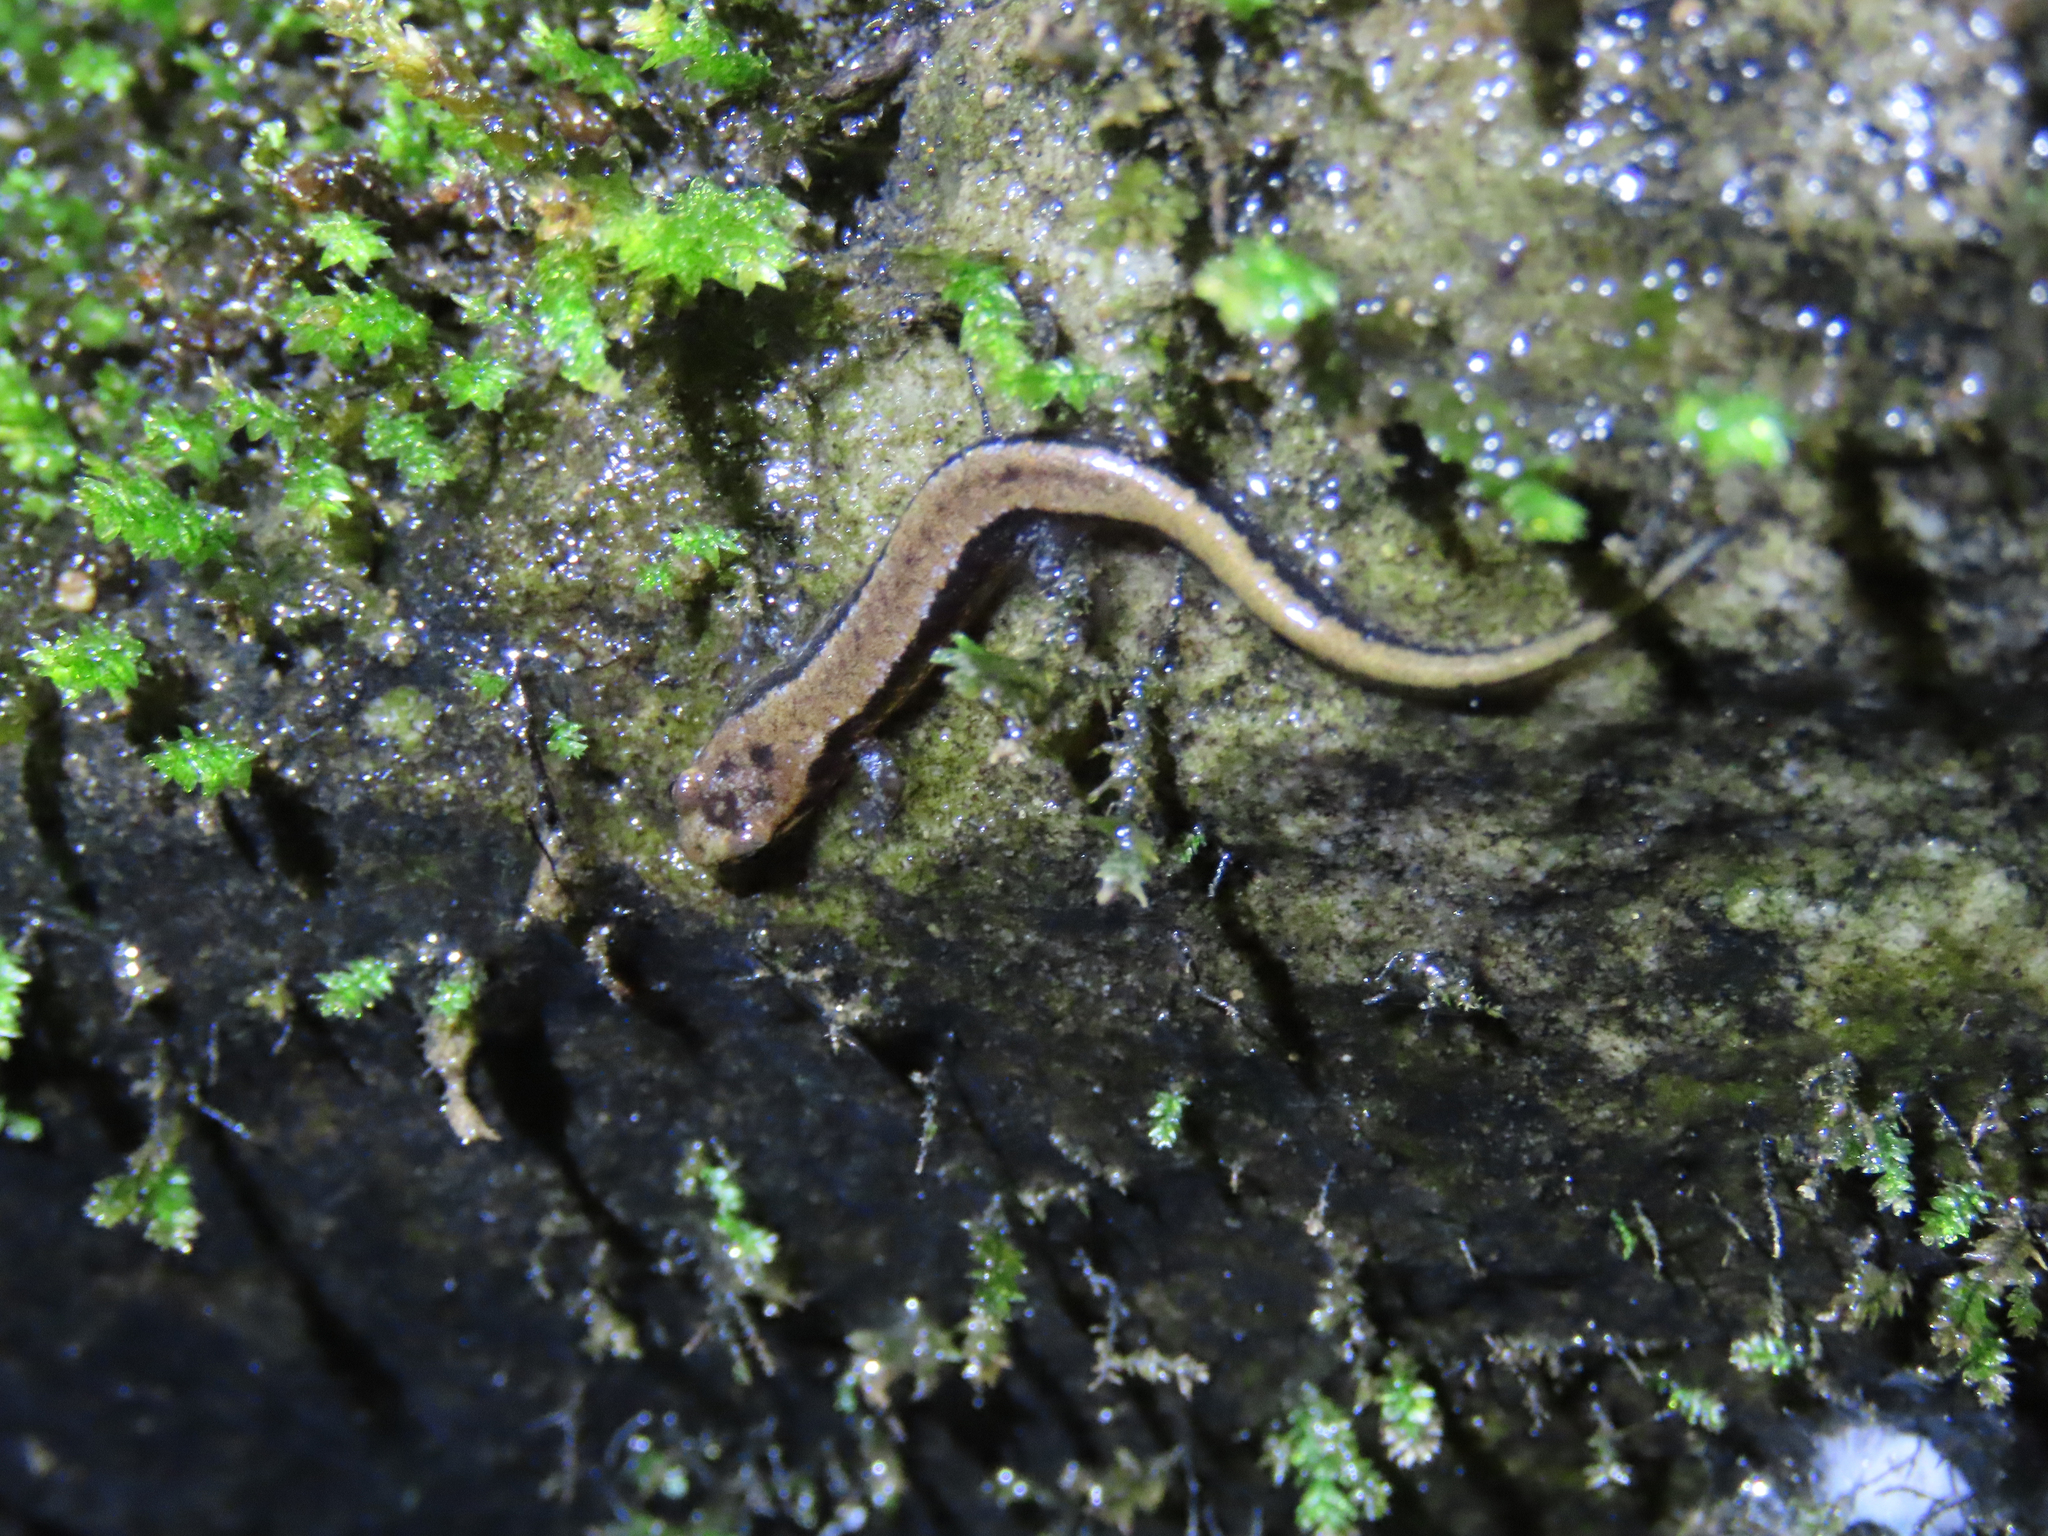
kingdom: Animalia
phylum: Chordata
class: Amphibia
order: Caudata
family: Plethodontidae
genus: Desmognathus
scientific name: Desmognathus ochrophaeus
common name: Allegheny mountain dusky salamander
